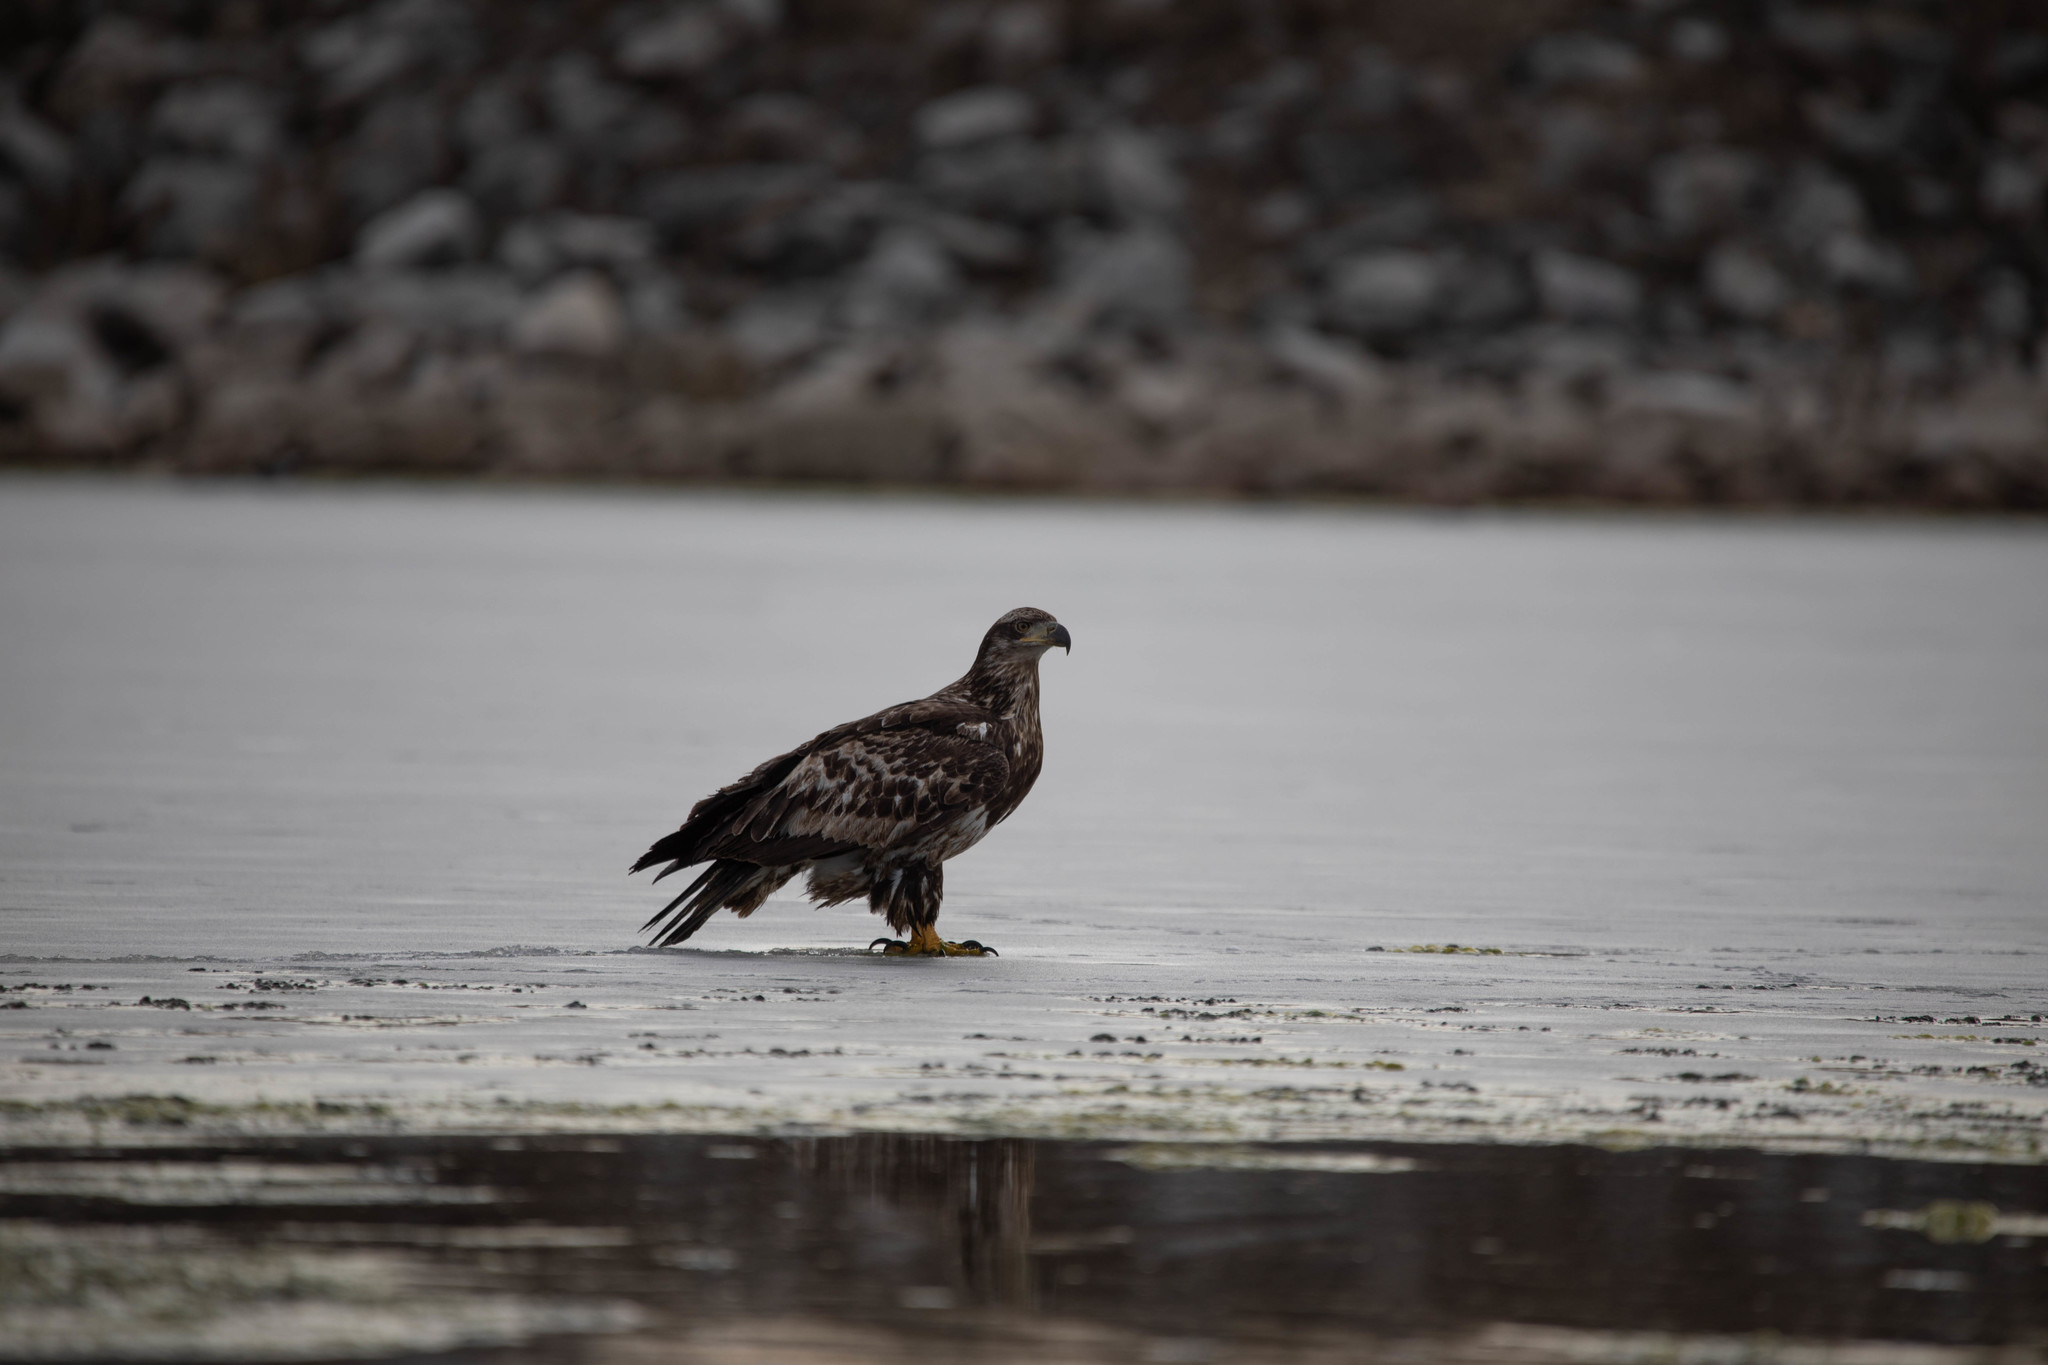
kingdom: Animalia
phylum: Chordata
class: Aves
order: Accipitriformes
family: Accipitridae
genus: Haliaeetus
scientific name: Haliaeetus leucocephalus
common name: Bald eagle
